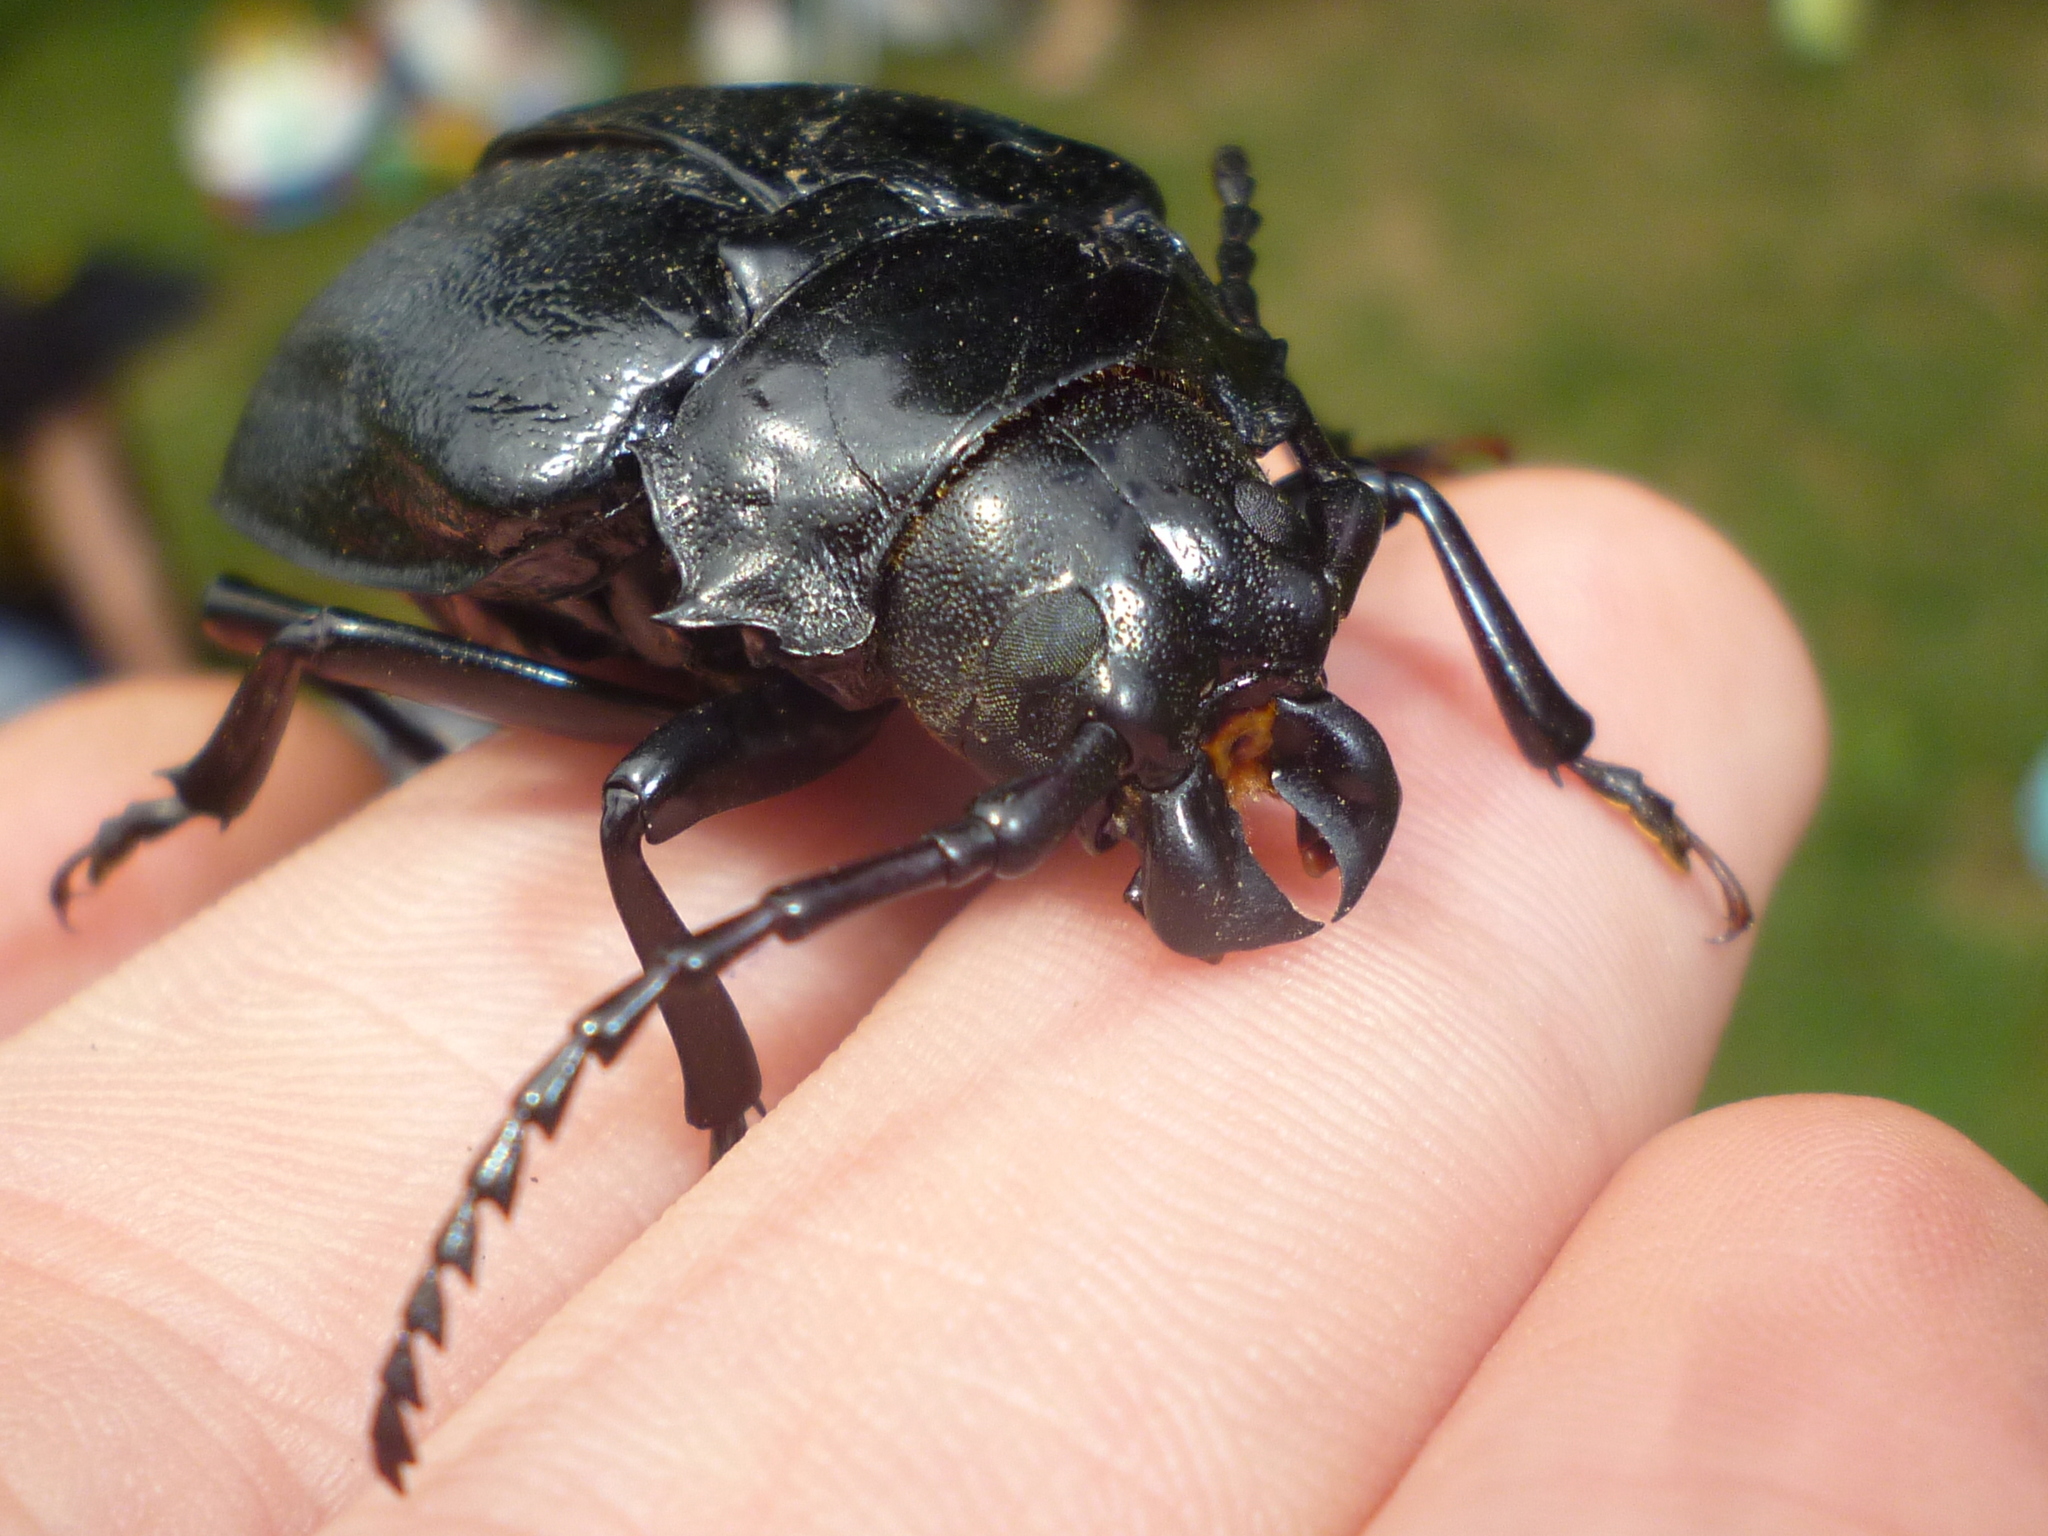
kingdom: Animalia
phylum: Arthropoda
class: Insecta
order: Coleoptera
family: Cerambycidae
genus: Prionus
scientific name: Prionus laticollis
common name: Broad necked prionus
